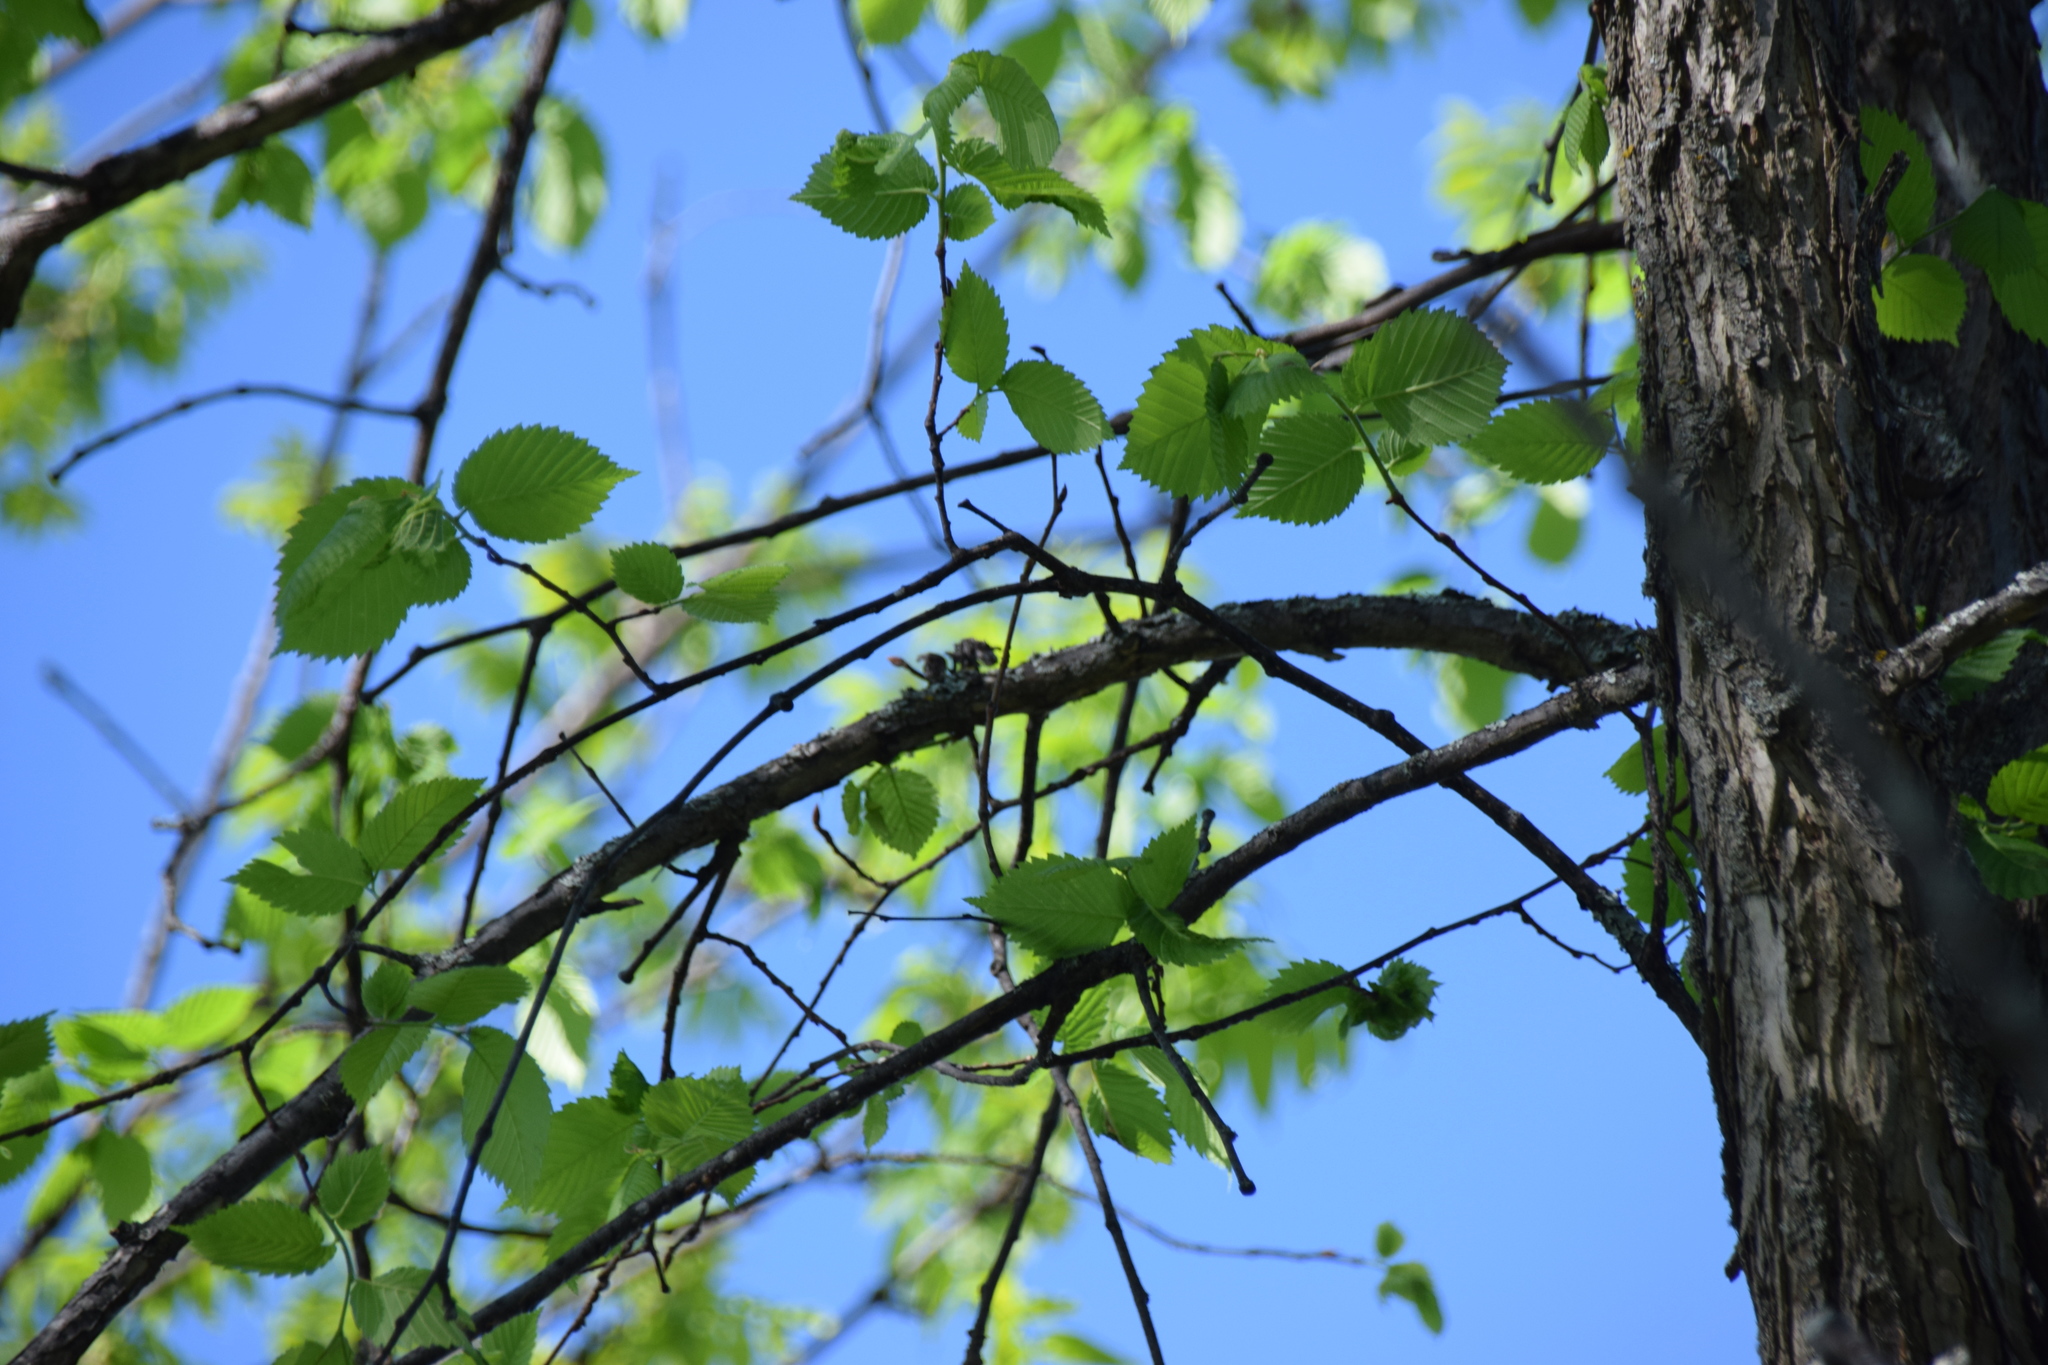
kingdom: Plantae
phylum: Tracheophyta
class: Magnoliopsida
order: Rosales
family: Ulmaceae
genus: Ulmus
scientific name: Ulmus americana
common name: American elm
